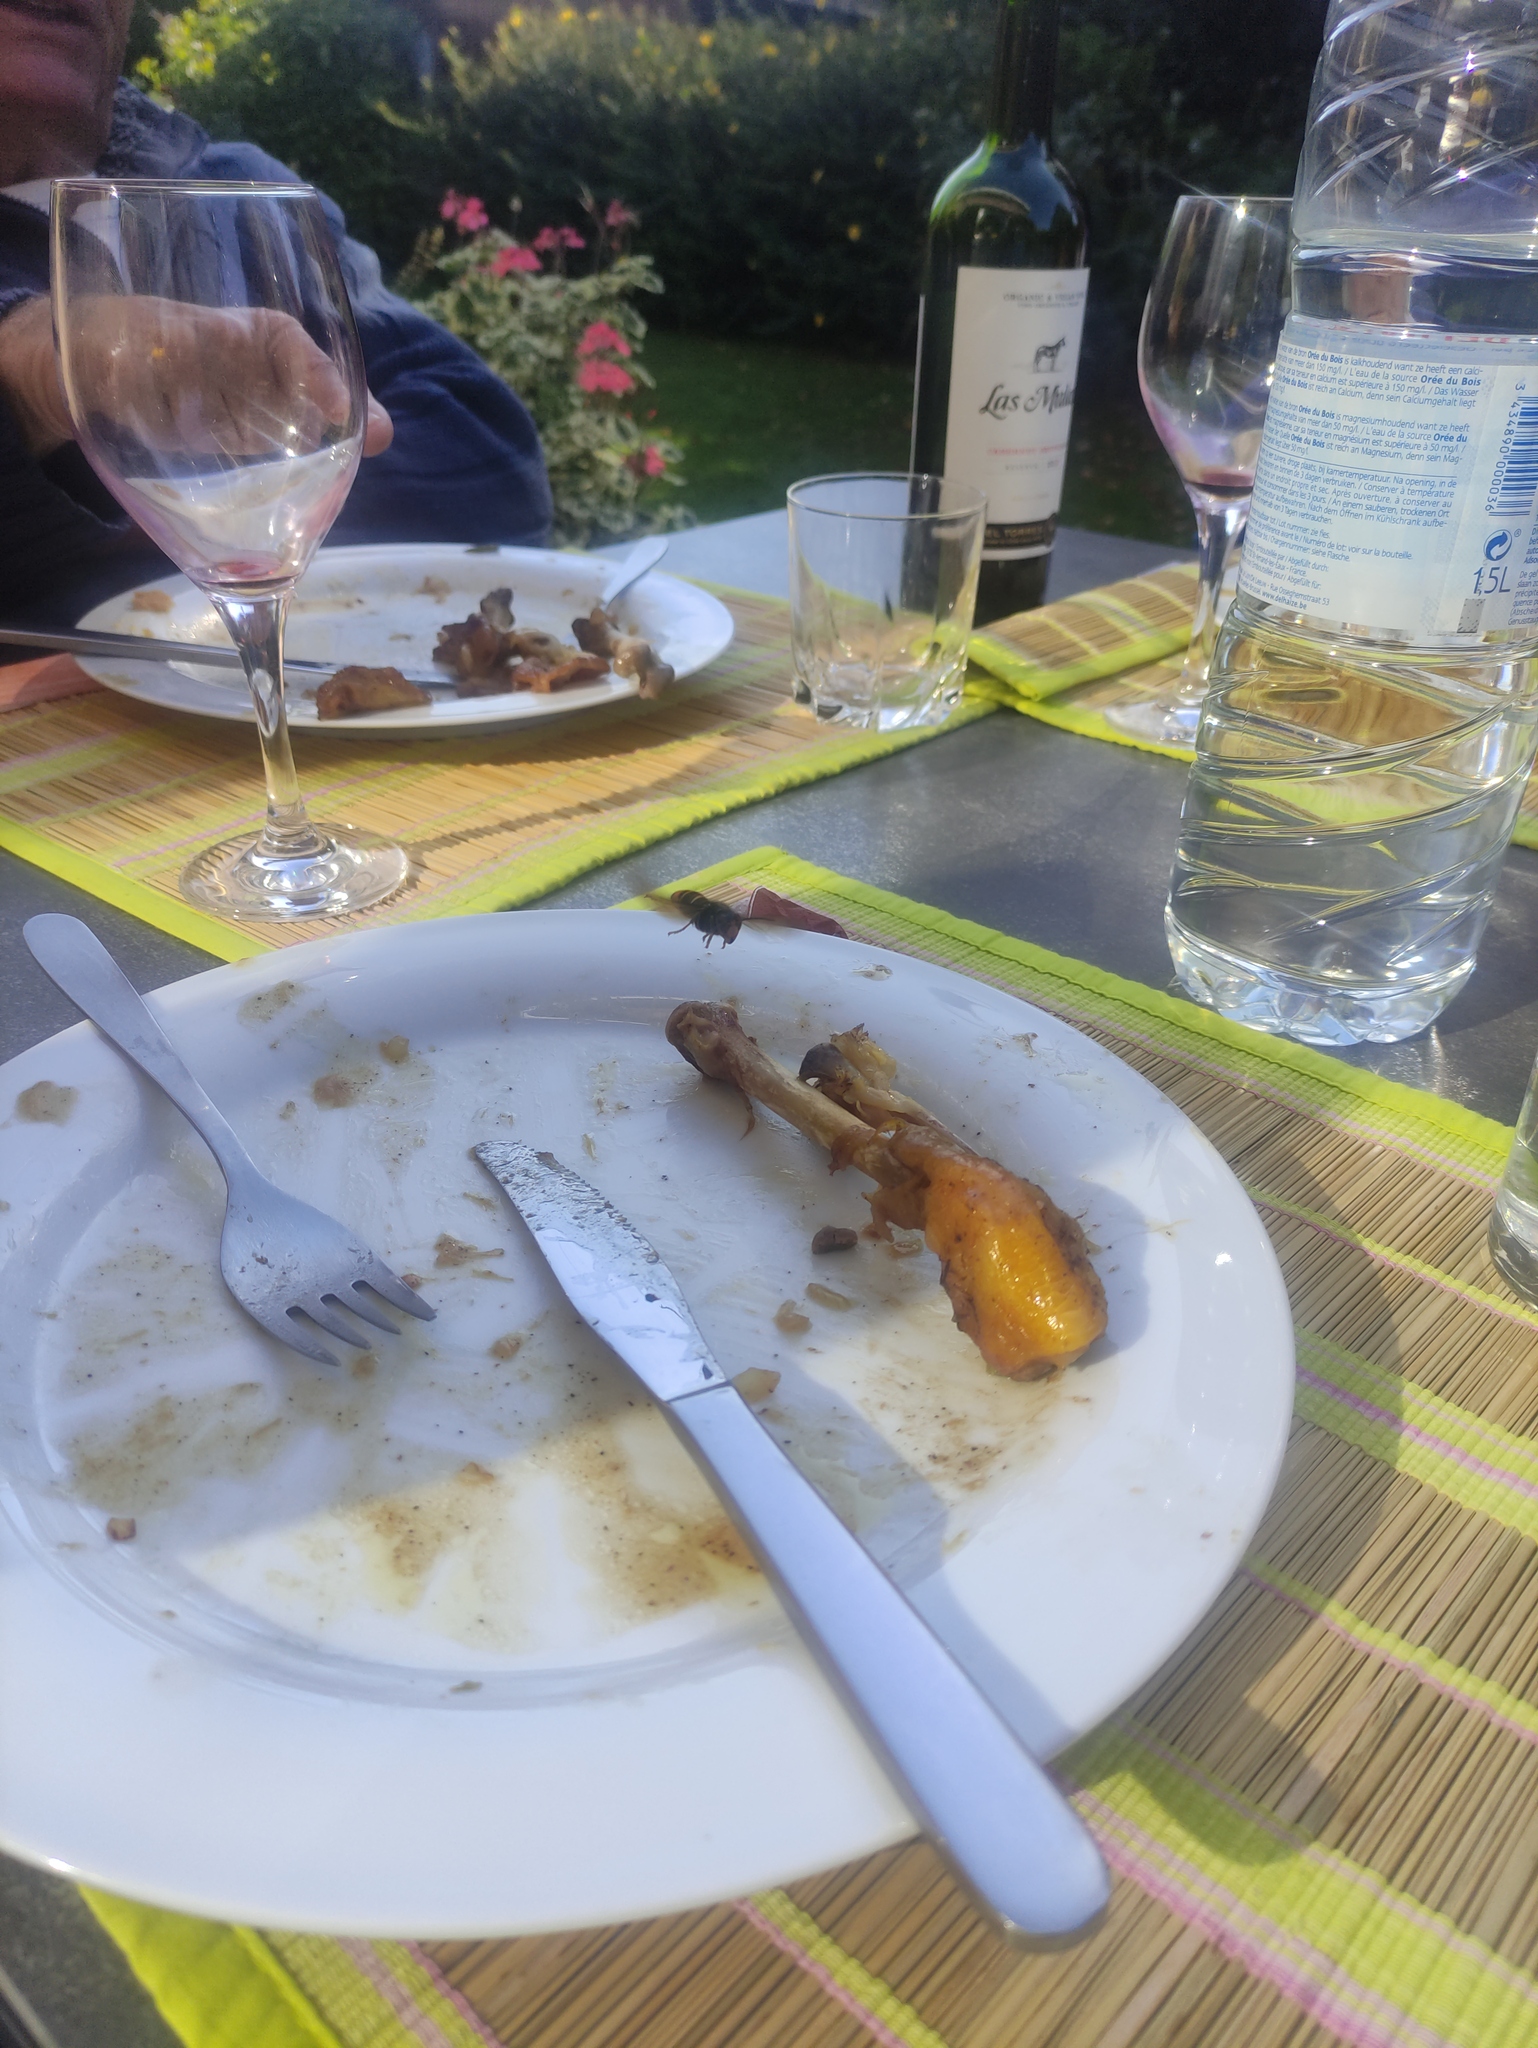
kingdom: Animalia
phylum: Arthropoda
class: Insecta
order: Hymenoptera
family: Vespidae
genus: Vespa
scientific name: Vespa velutina
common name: Asian hornet
